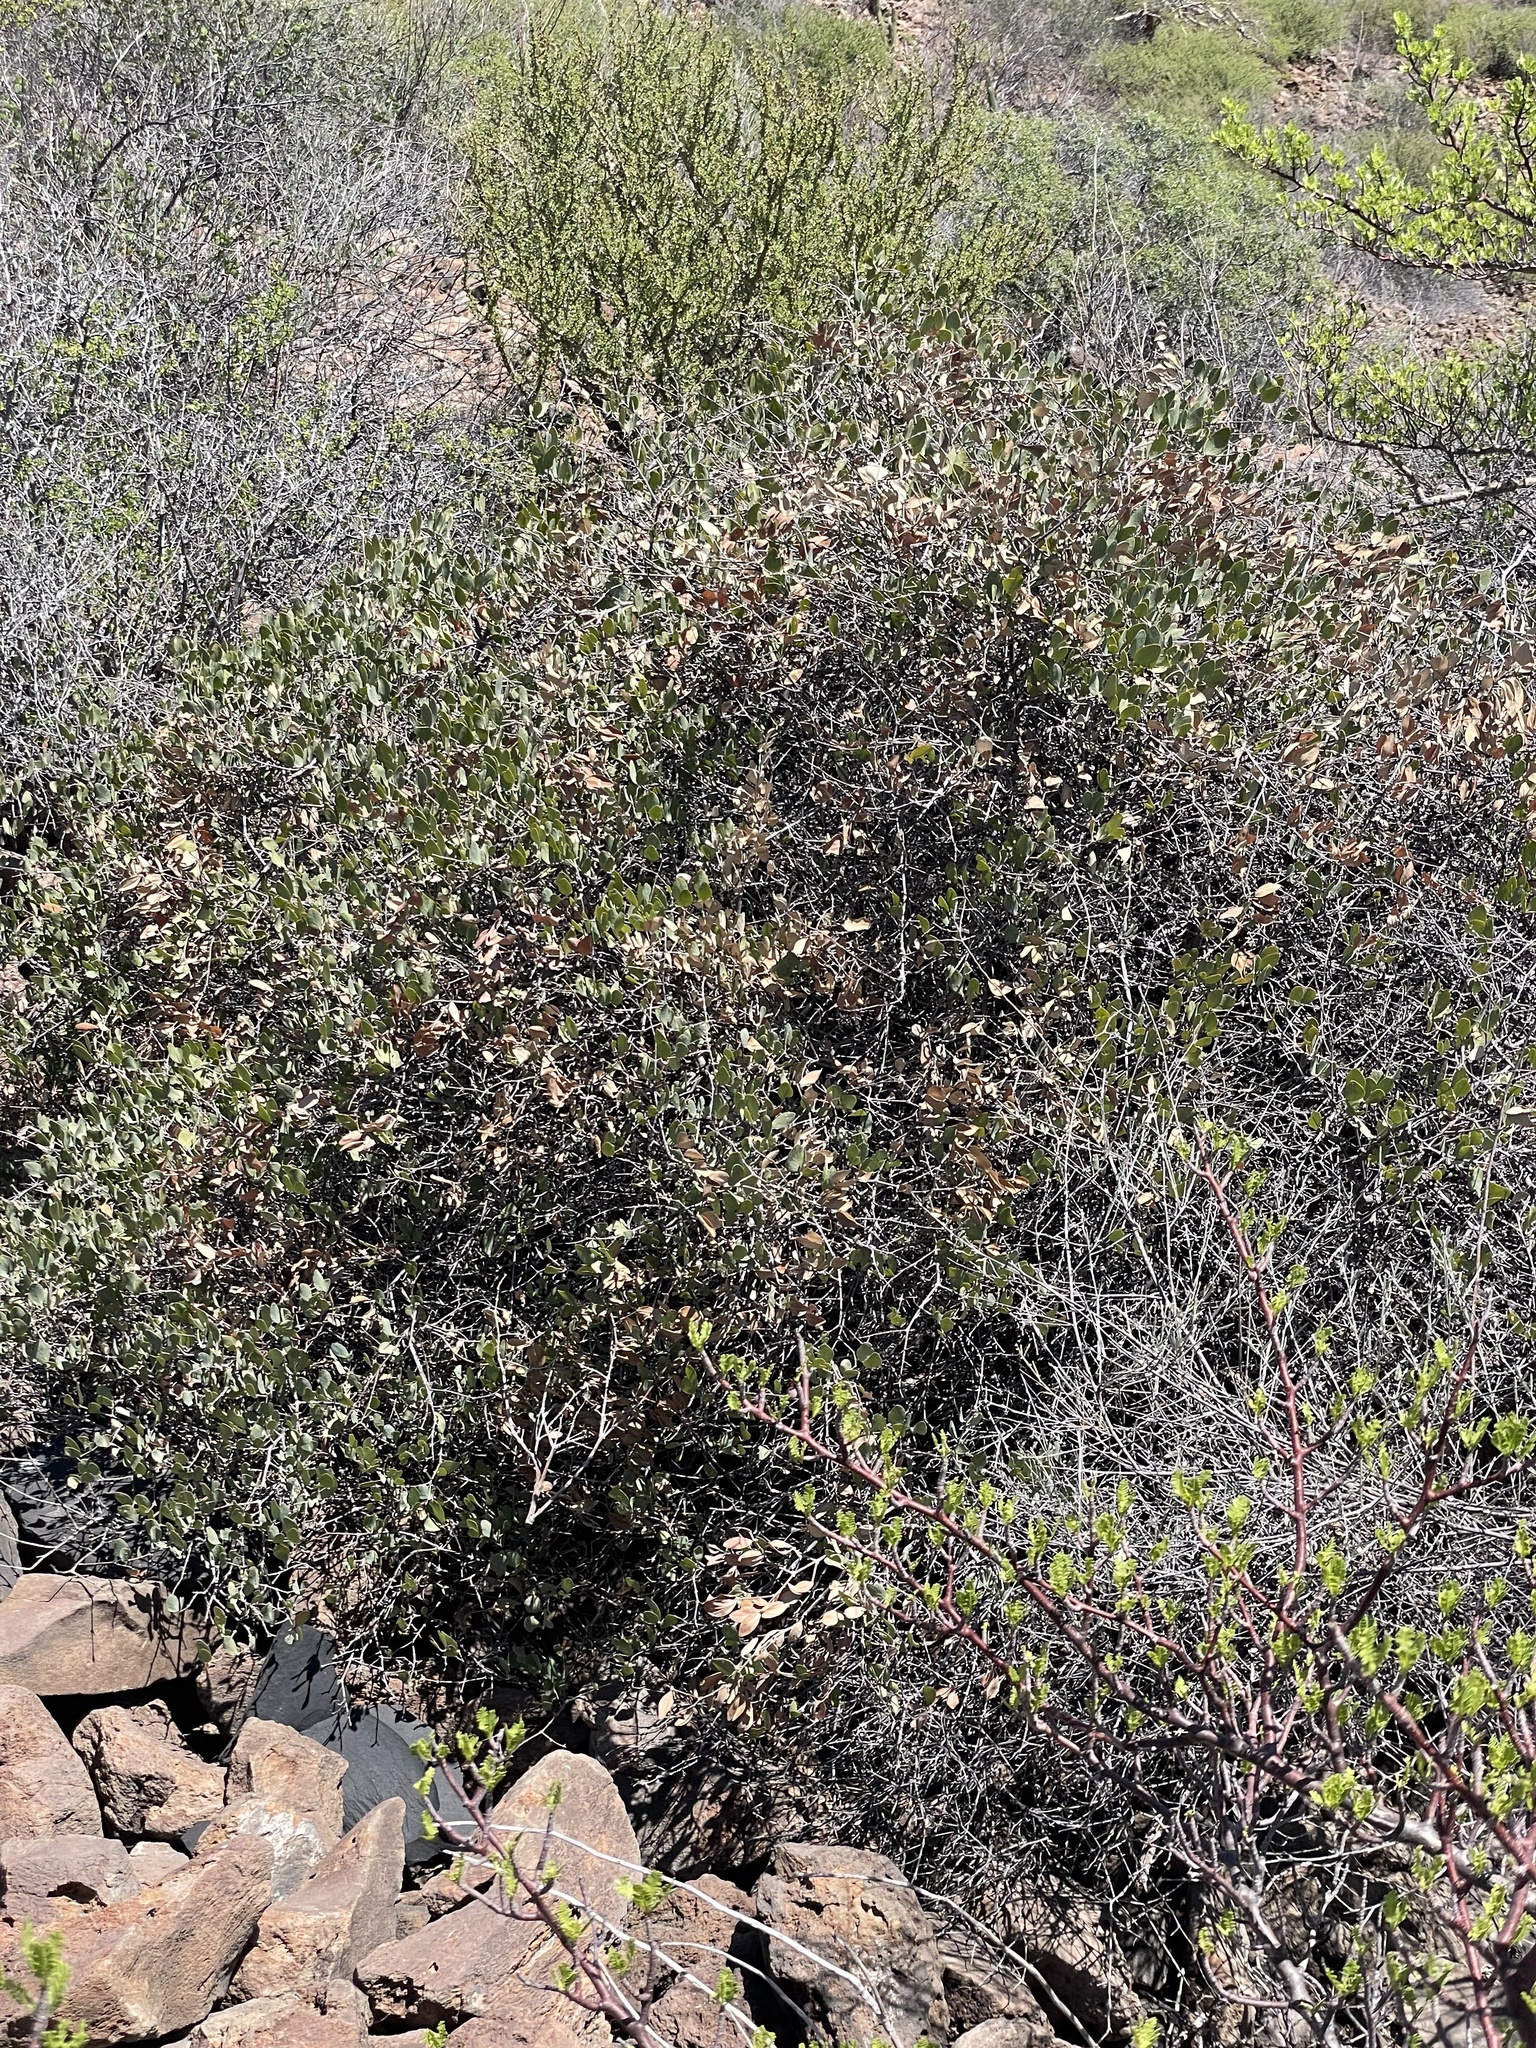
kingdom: Plantae
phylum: Tracheophyta
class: Magnoliopsida
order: Caryophyllales
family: Simmondsiaceae
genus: Simmondsia
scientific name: Simmondsia chinensis
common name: Jojoba
